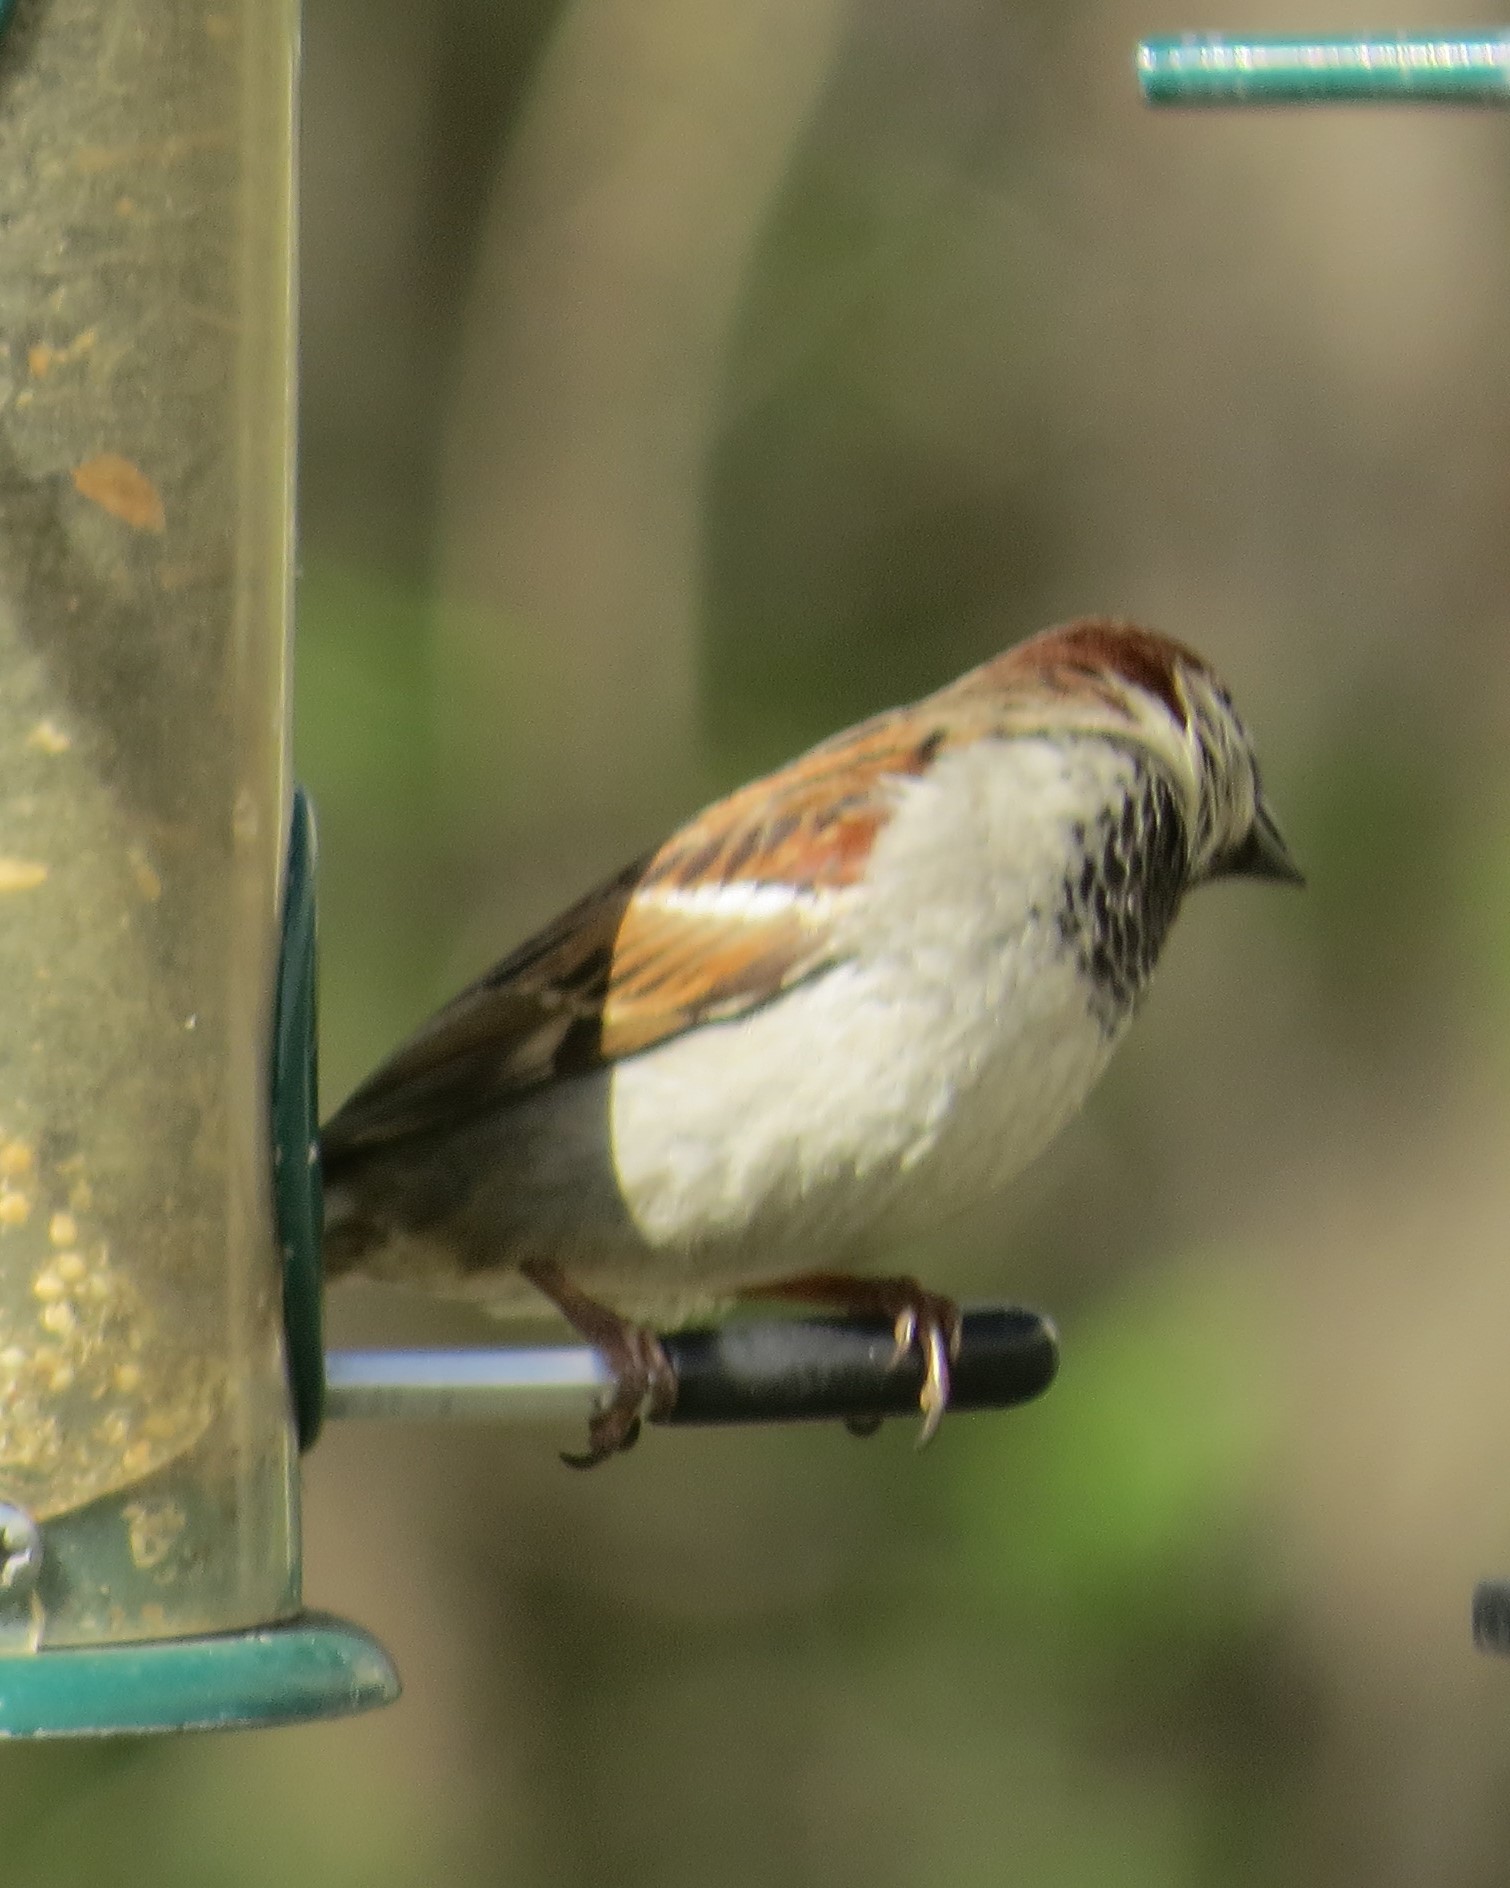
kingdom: Animalia
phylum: Chordata
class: Aves
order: Passeriformes
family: Passeridae
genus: Passer
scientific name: Passer domesticus
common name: House sparrow
